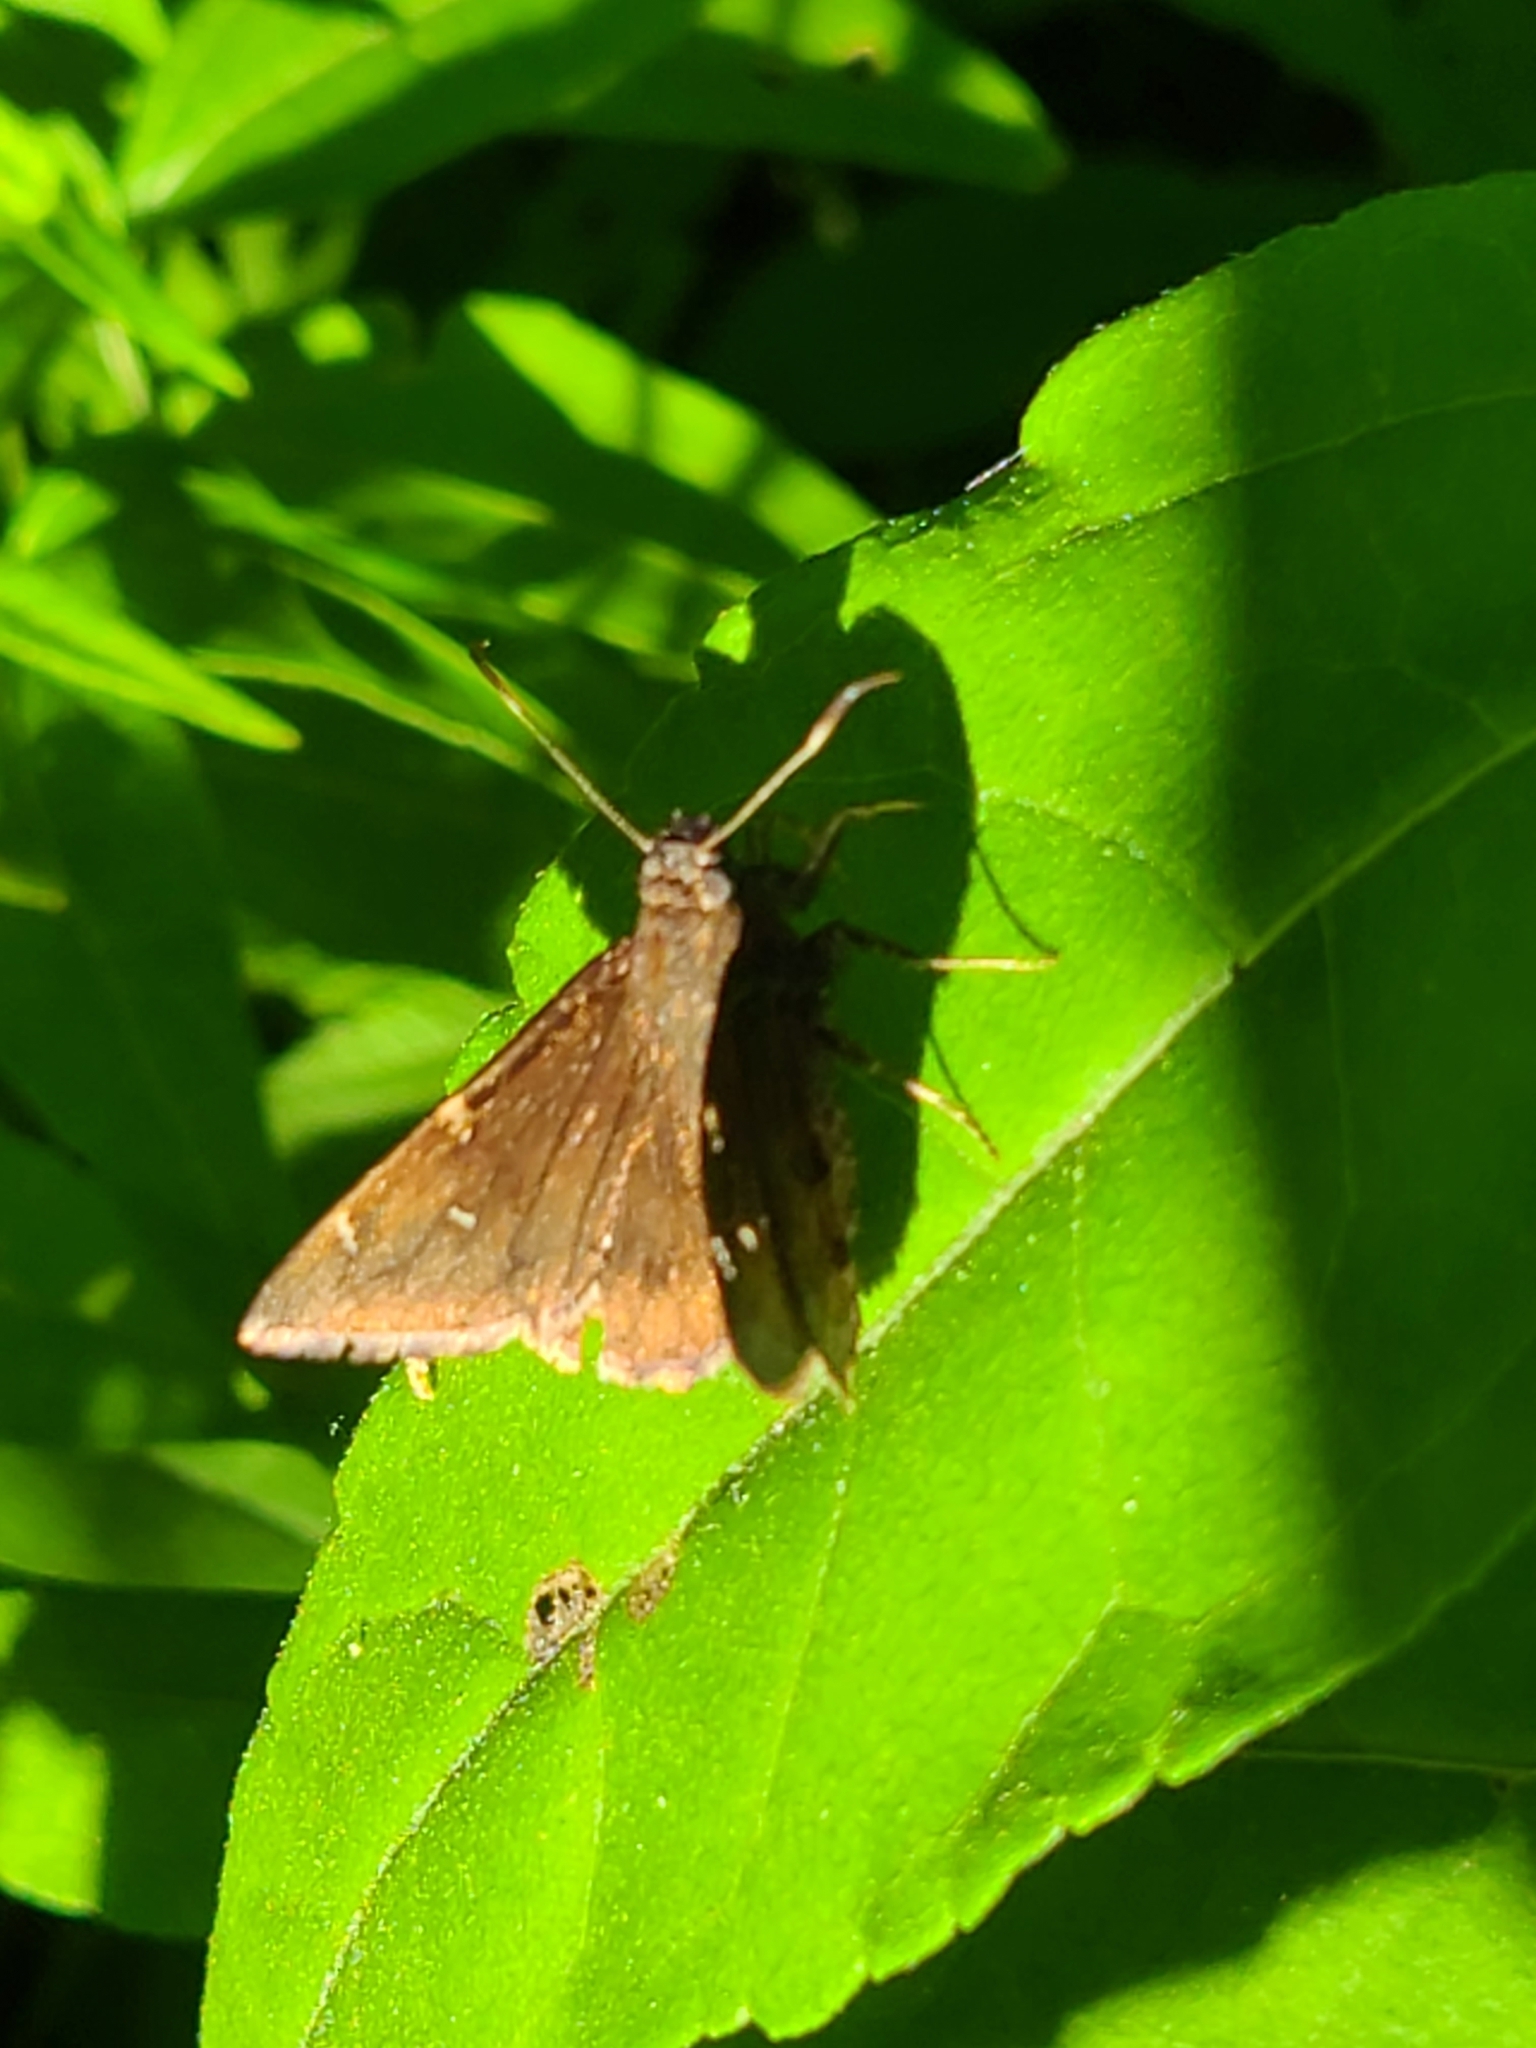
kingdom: Animalia
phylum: Arthropoda
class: Insecta
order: Lepidoptera
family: Hesperiidae
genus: Thorybes
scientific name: Thorybes pylades
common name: Northern cloudywing
